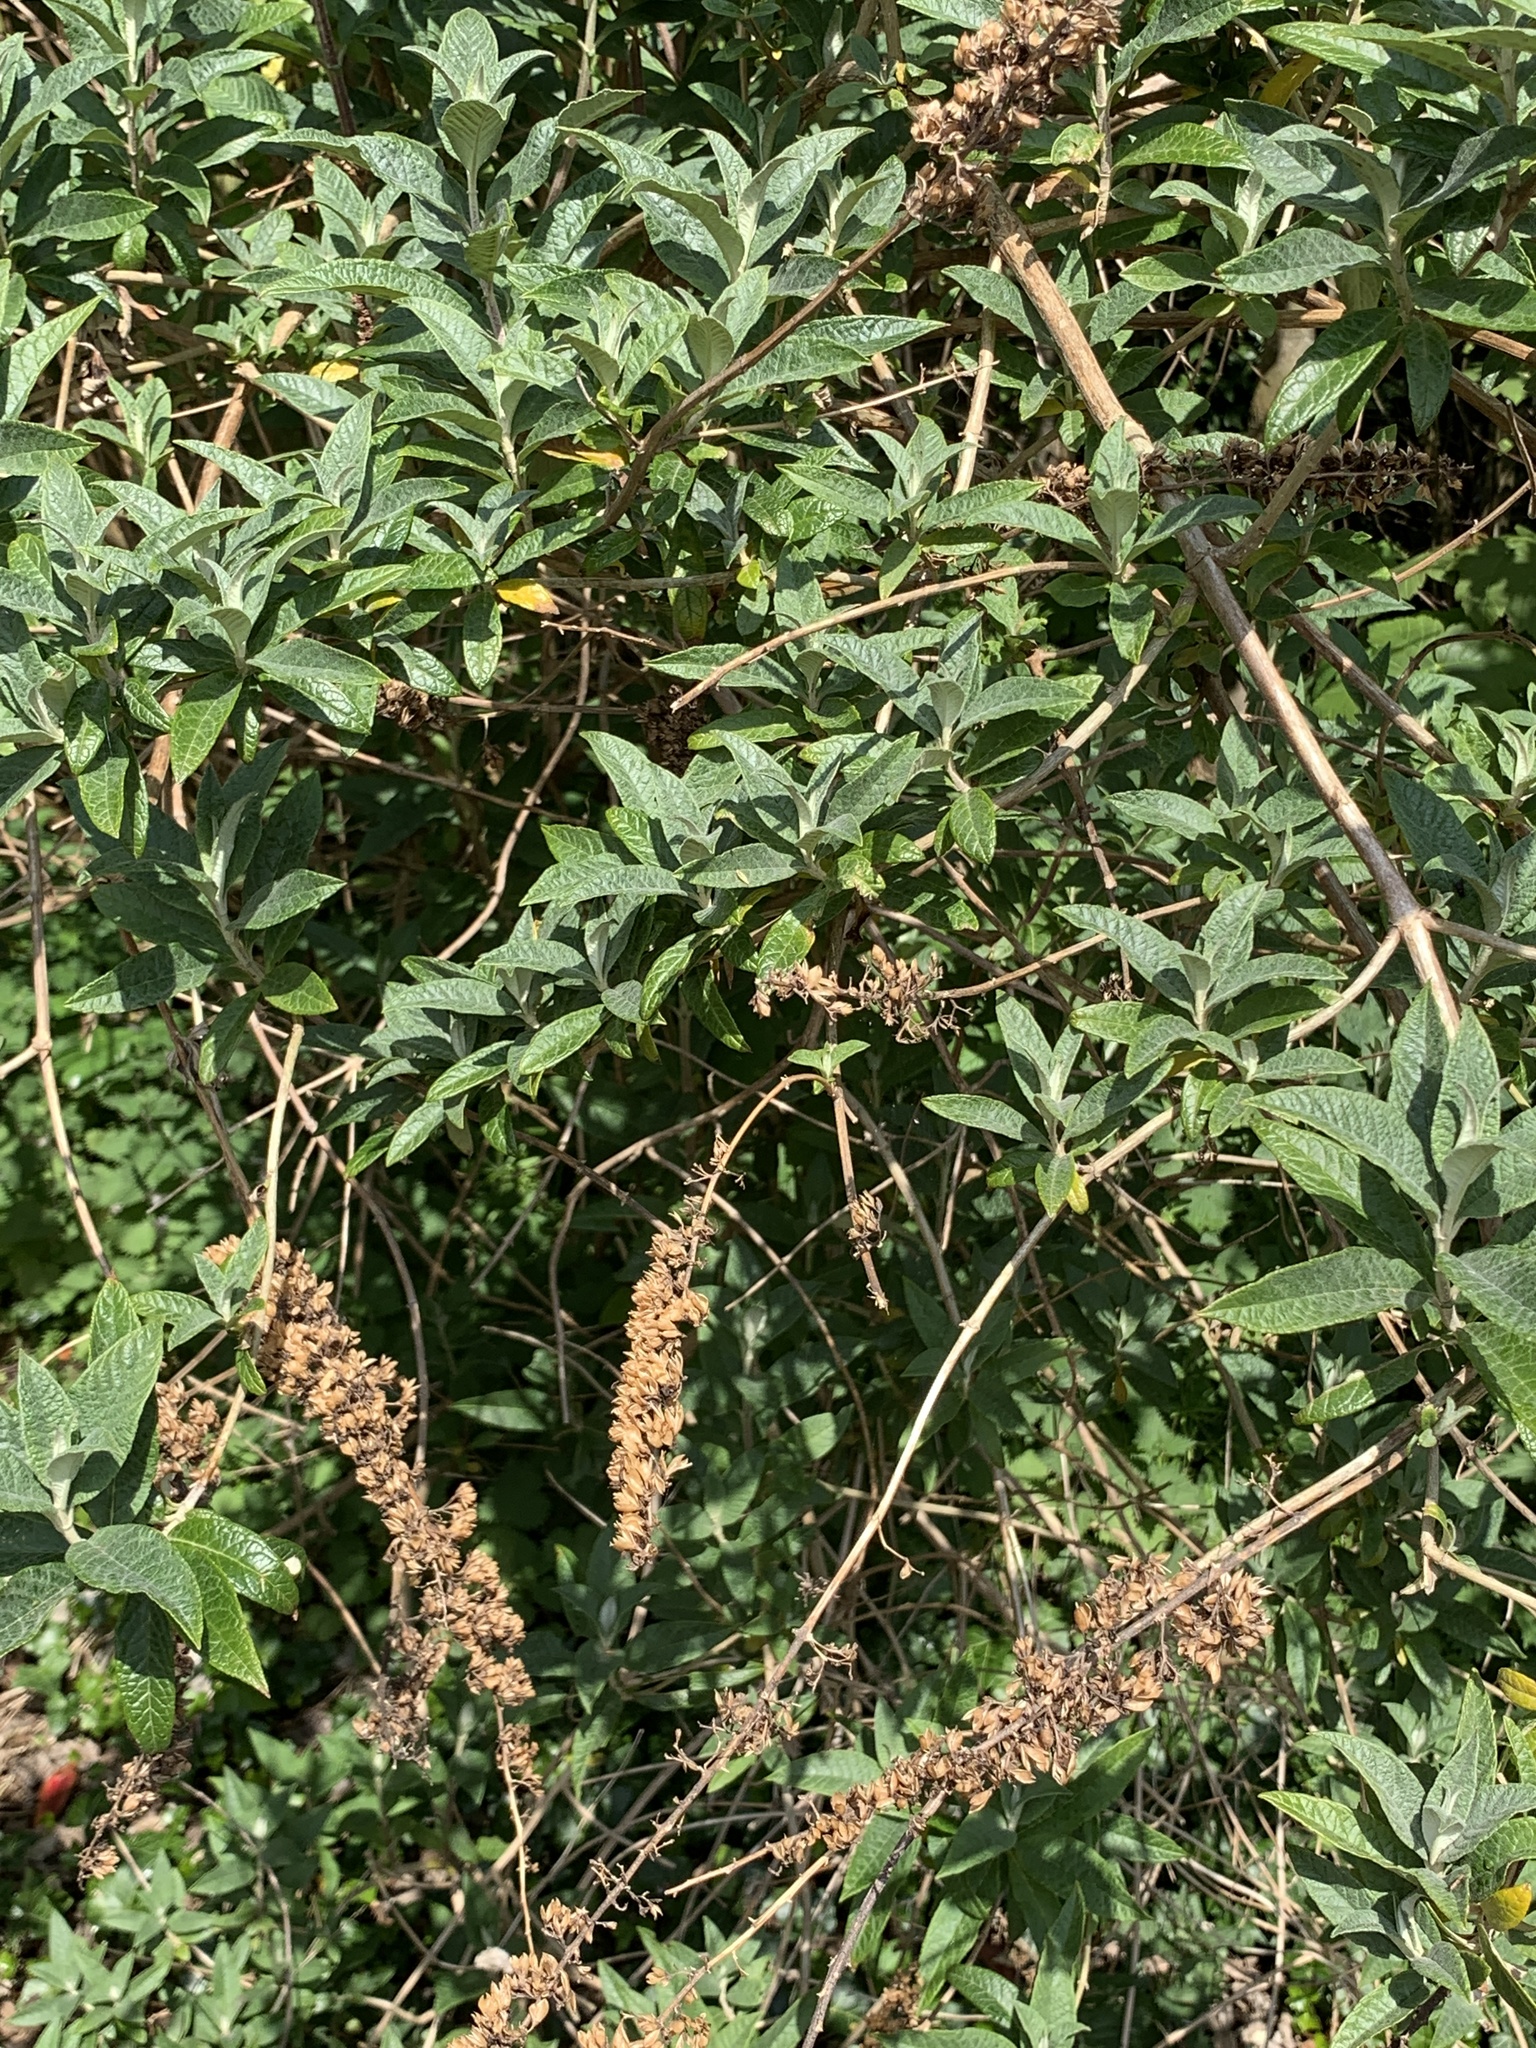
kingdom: Plantae
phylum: Tracheophyta
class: Magnoliopsida
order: Lamiales
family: Scrophulariaceae
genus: Buddleja
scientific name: Buddleja davidii
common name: Butterfly-bush
